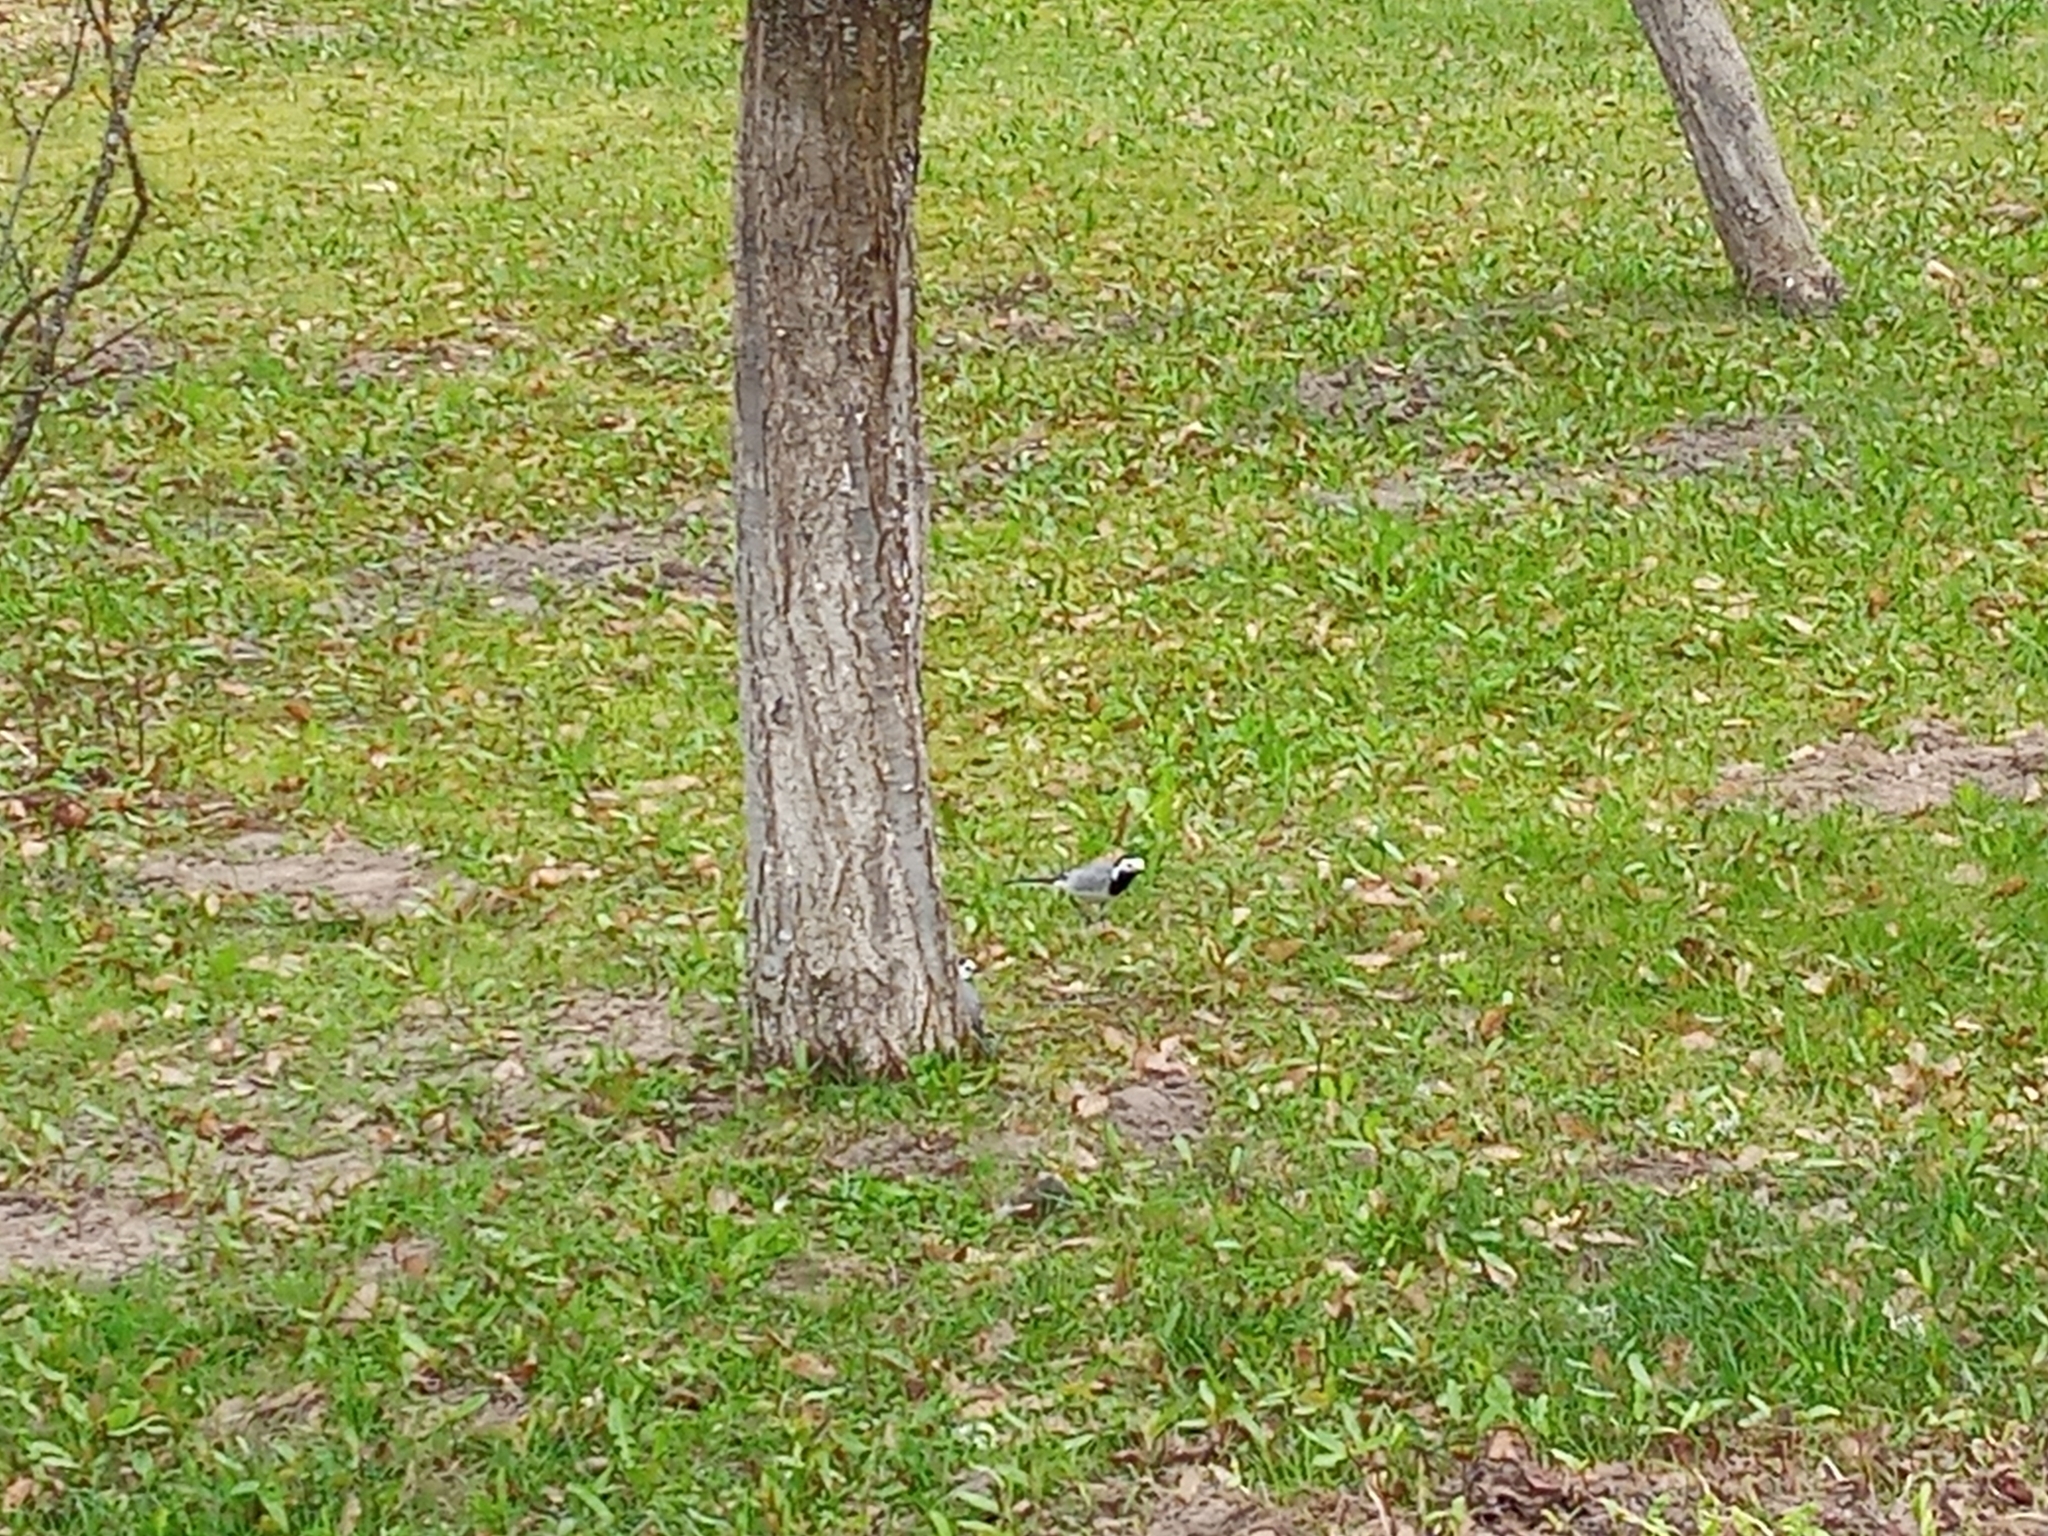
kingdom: Animalia
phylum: Chordata
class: Aves
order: Passeriformes
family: Motacillidae
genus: Motacilla
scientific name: Motacilla alba
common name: White wagtail
